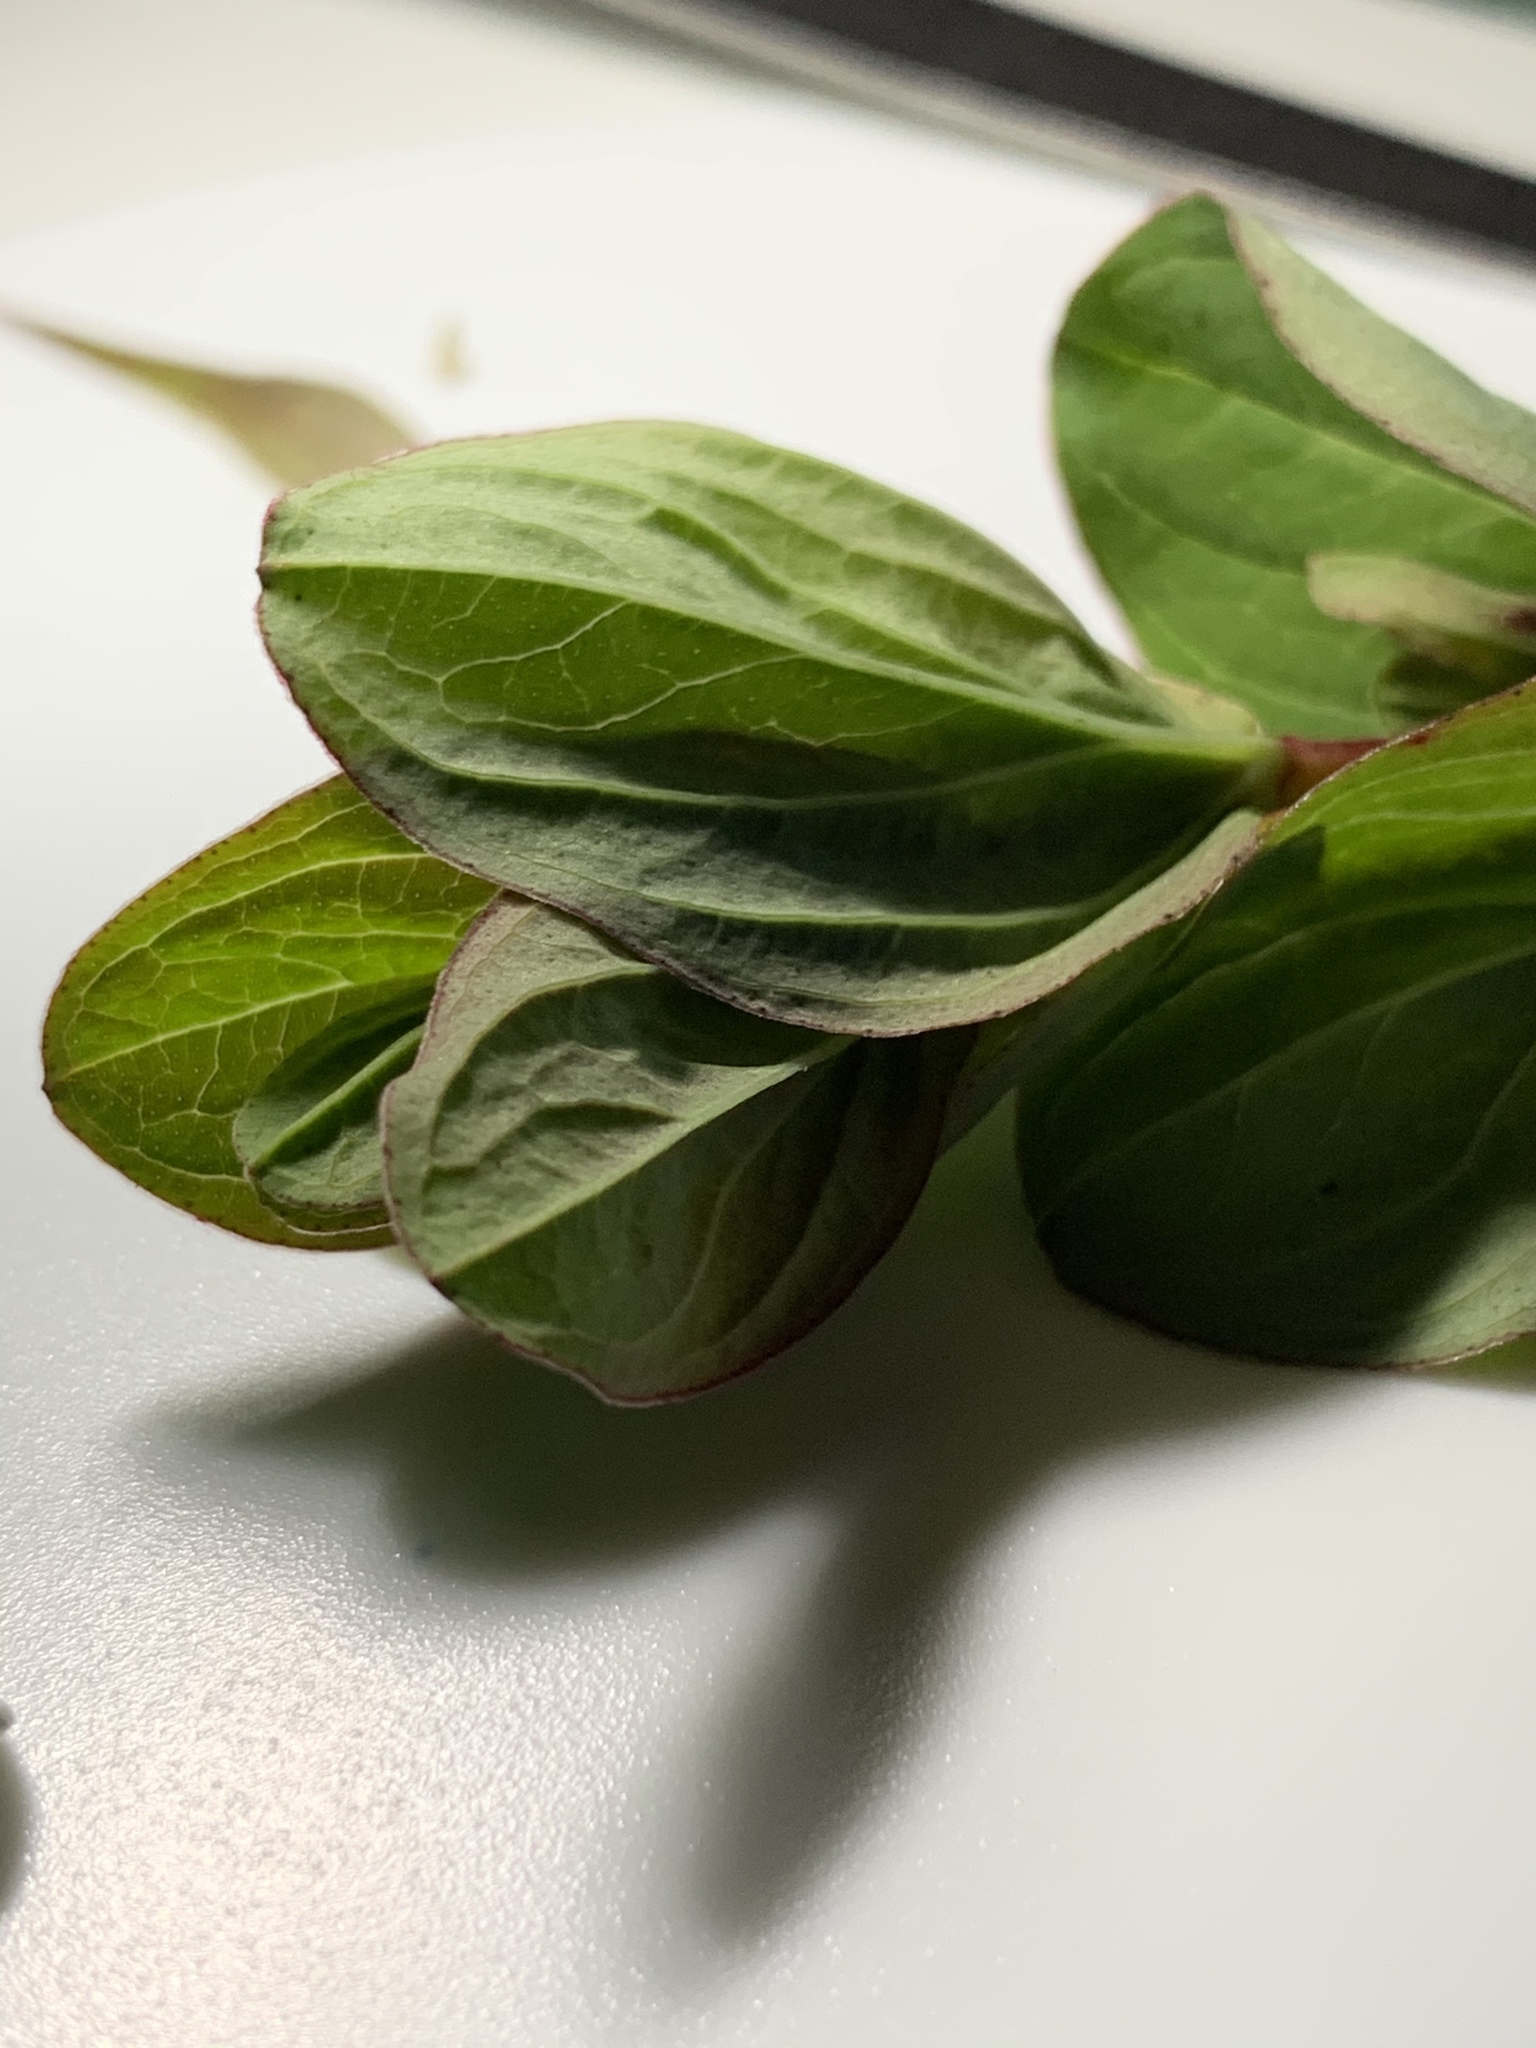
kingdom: Plantae
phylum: Tracheophyta
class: Magnoliopsida
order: Malpighiales
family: Hypericaceae
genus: Hypericum
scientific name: Hypericum tetrapterum
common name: Square-stalked st. john's-wort
